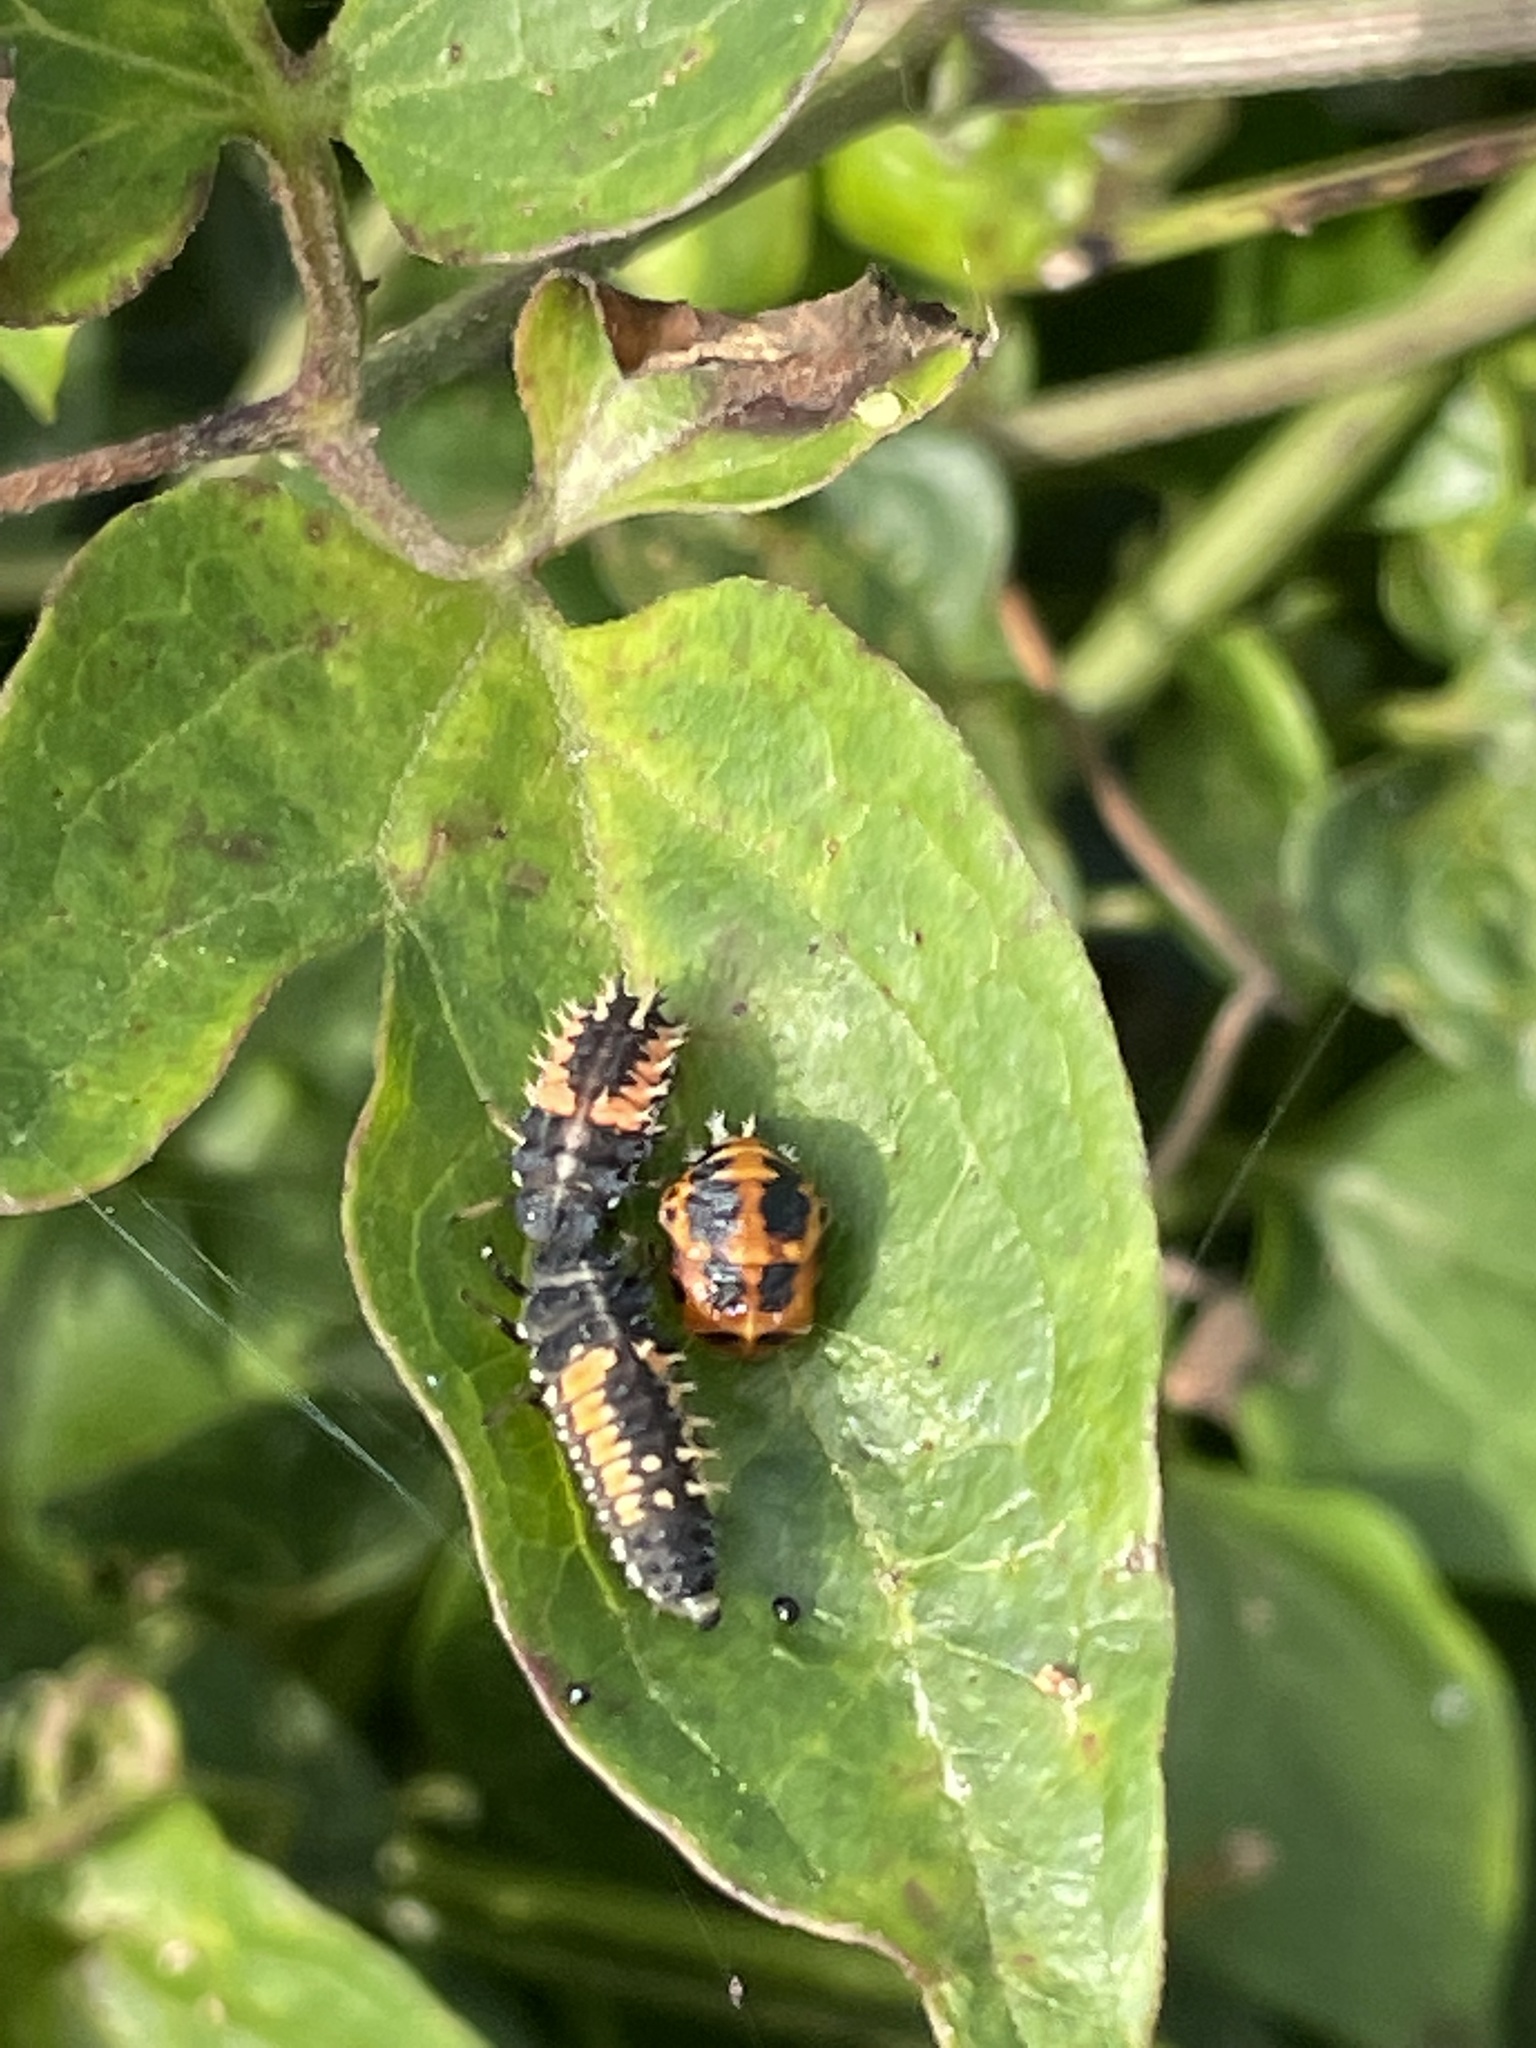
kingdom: Animalia
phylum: Arthropoda
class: Insecta
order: Coleoptera
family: Coccinellidae
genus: Harmonia
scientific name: Harmonia axyridis
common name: Harlequin ladybird
